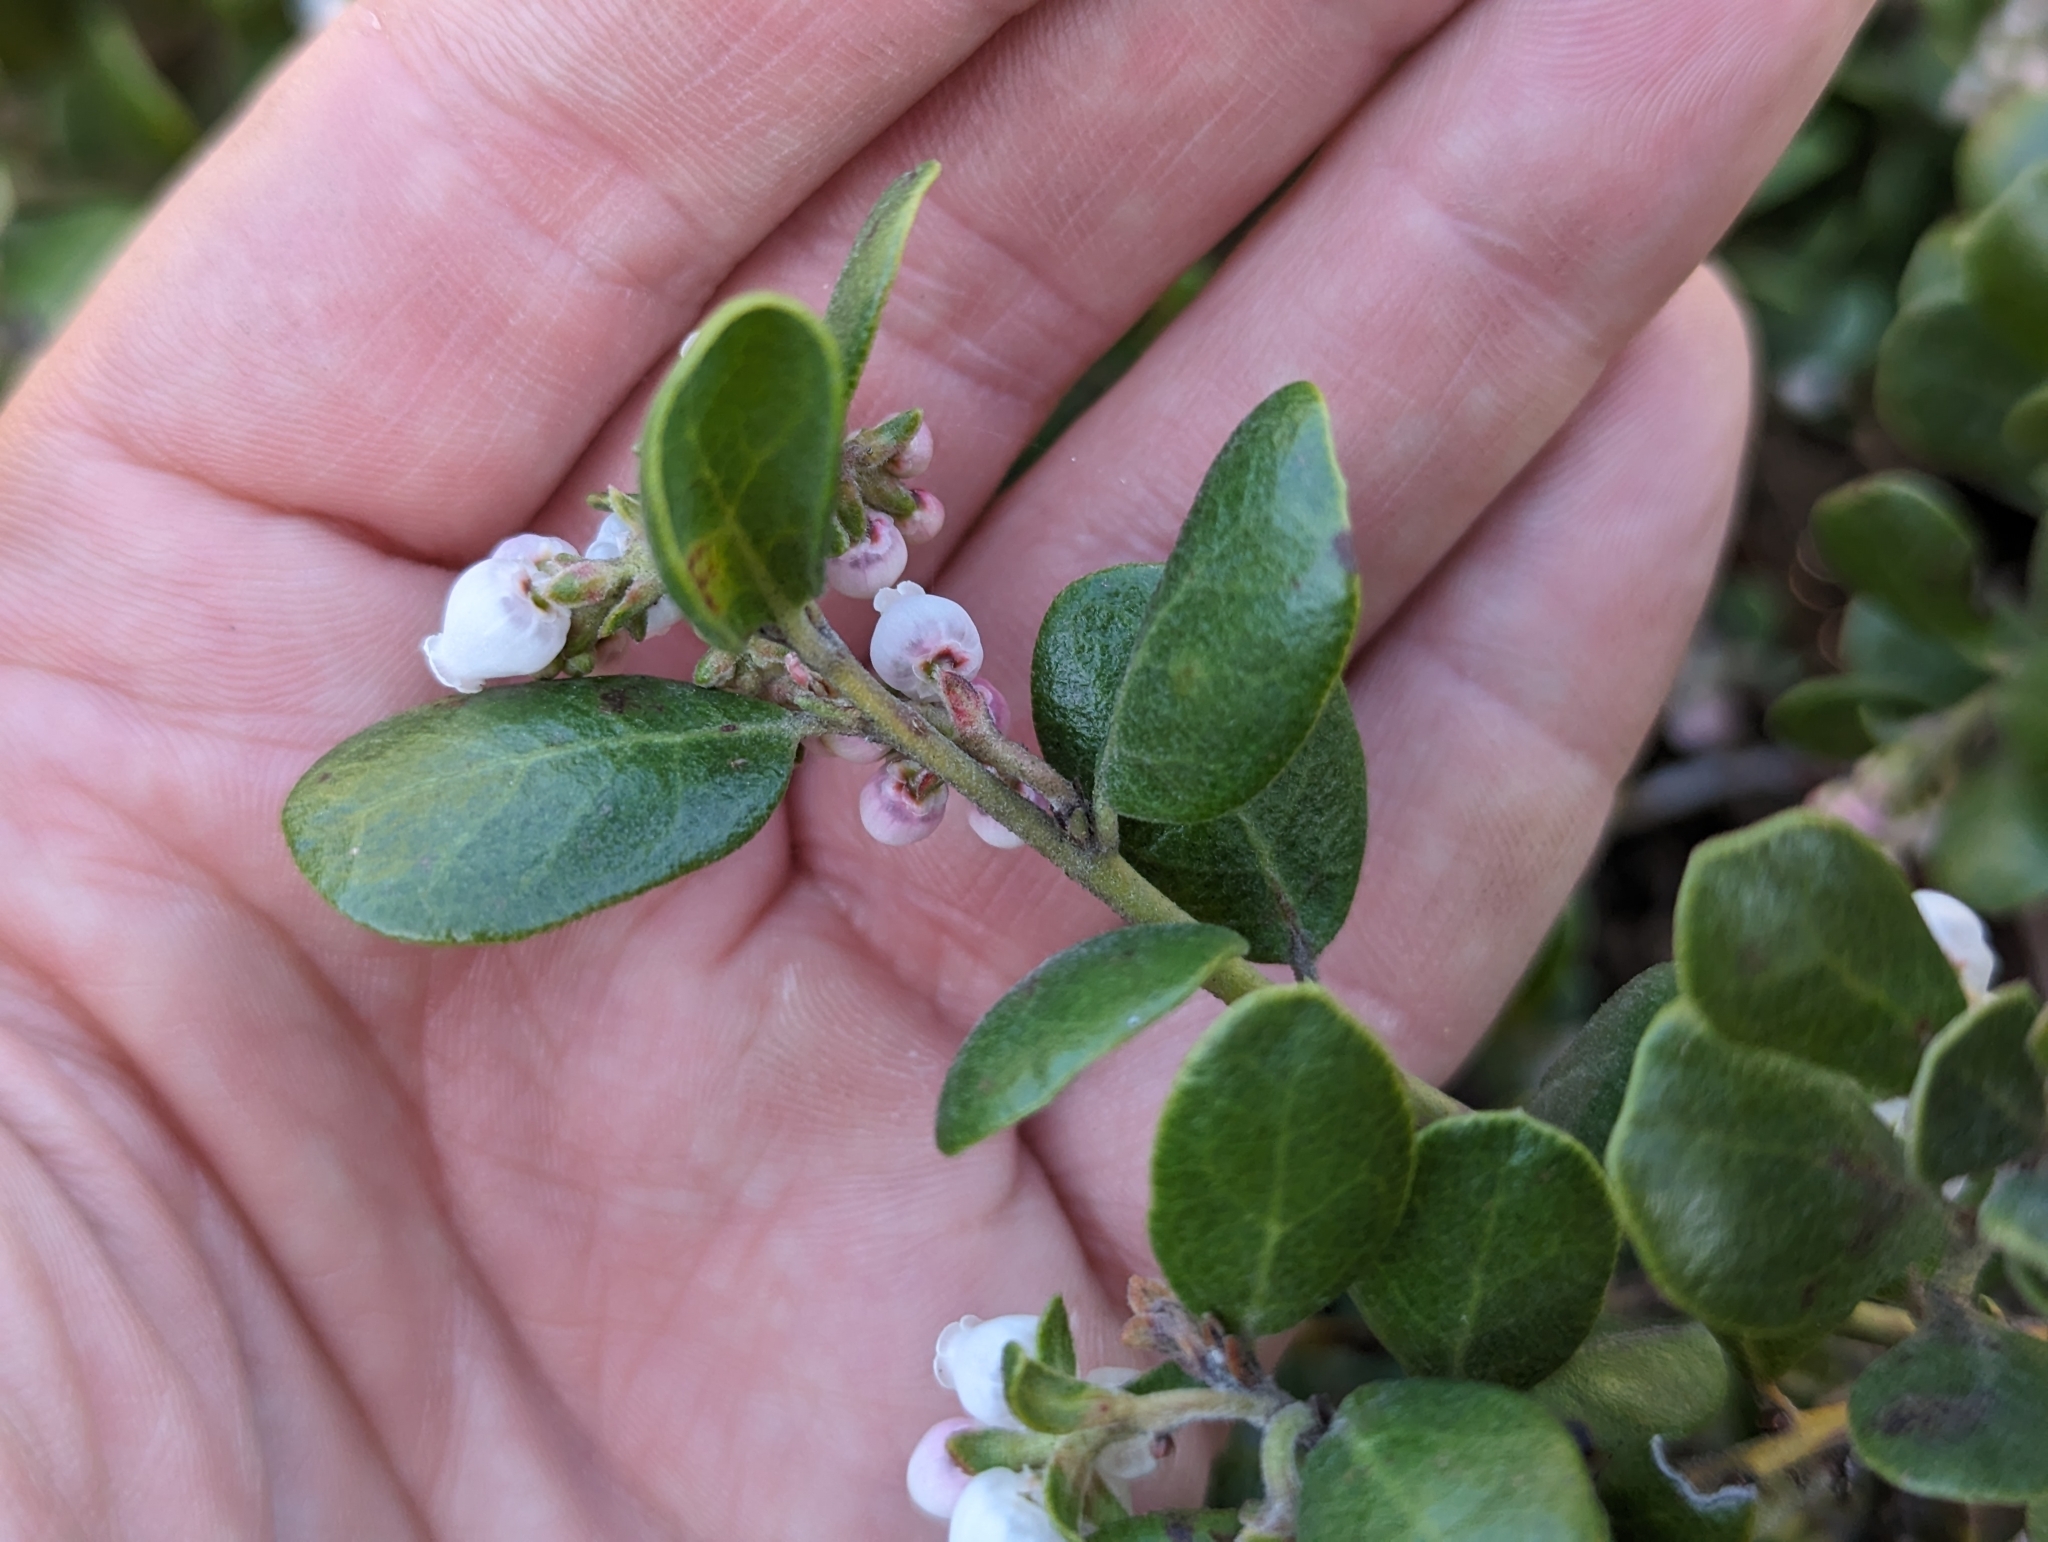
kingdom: Plantae
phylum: Tracheophyta
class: Magnoliopsida
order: Ericales
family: Ericaceae
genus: Arctostaphylos
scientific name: Arctostaphylos pumila
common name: Sandmat manzanita
